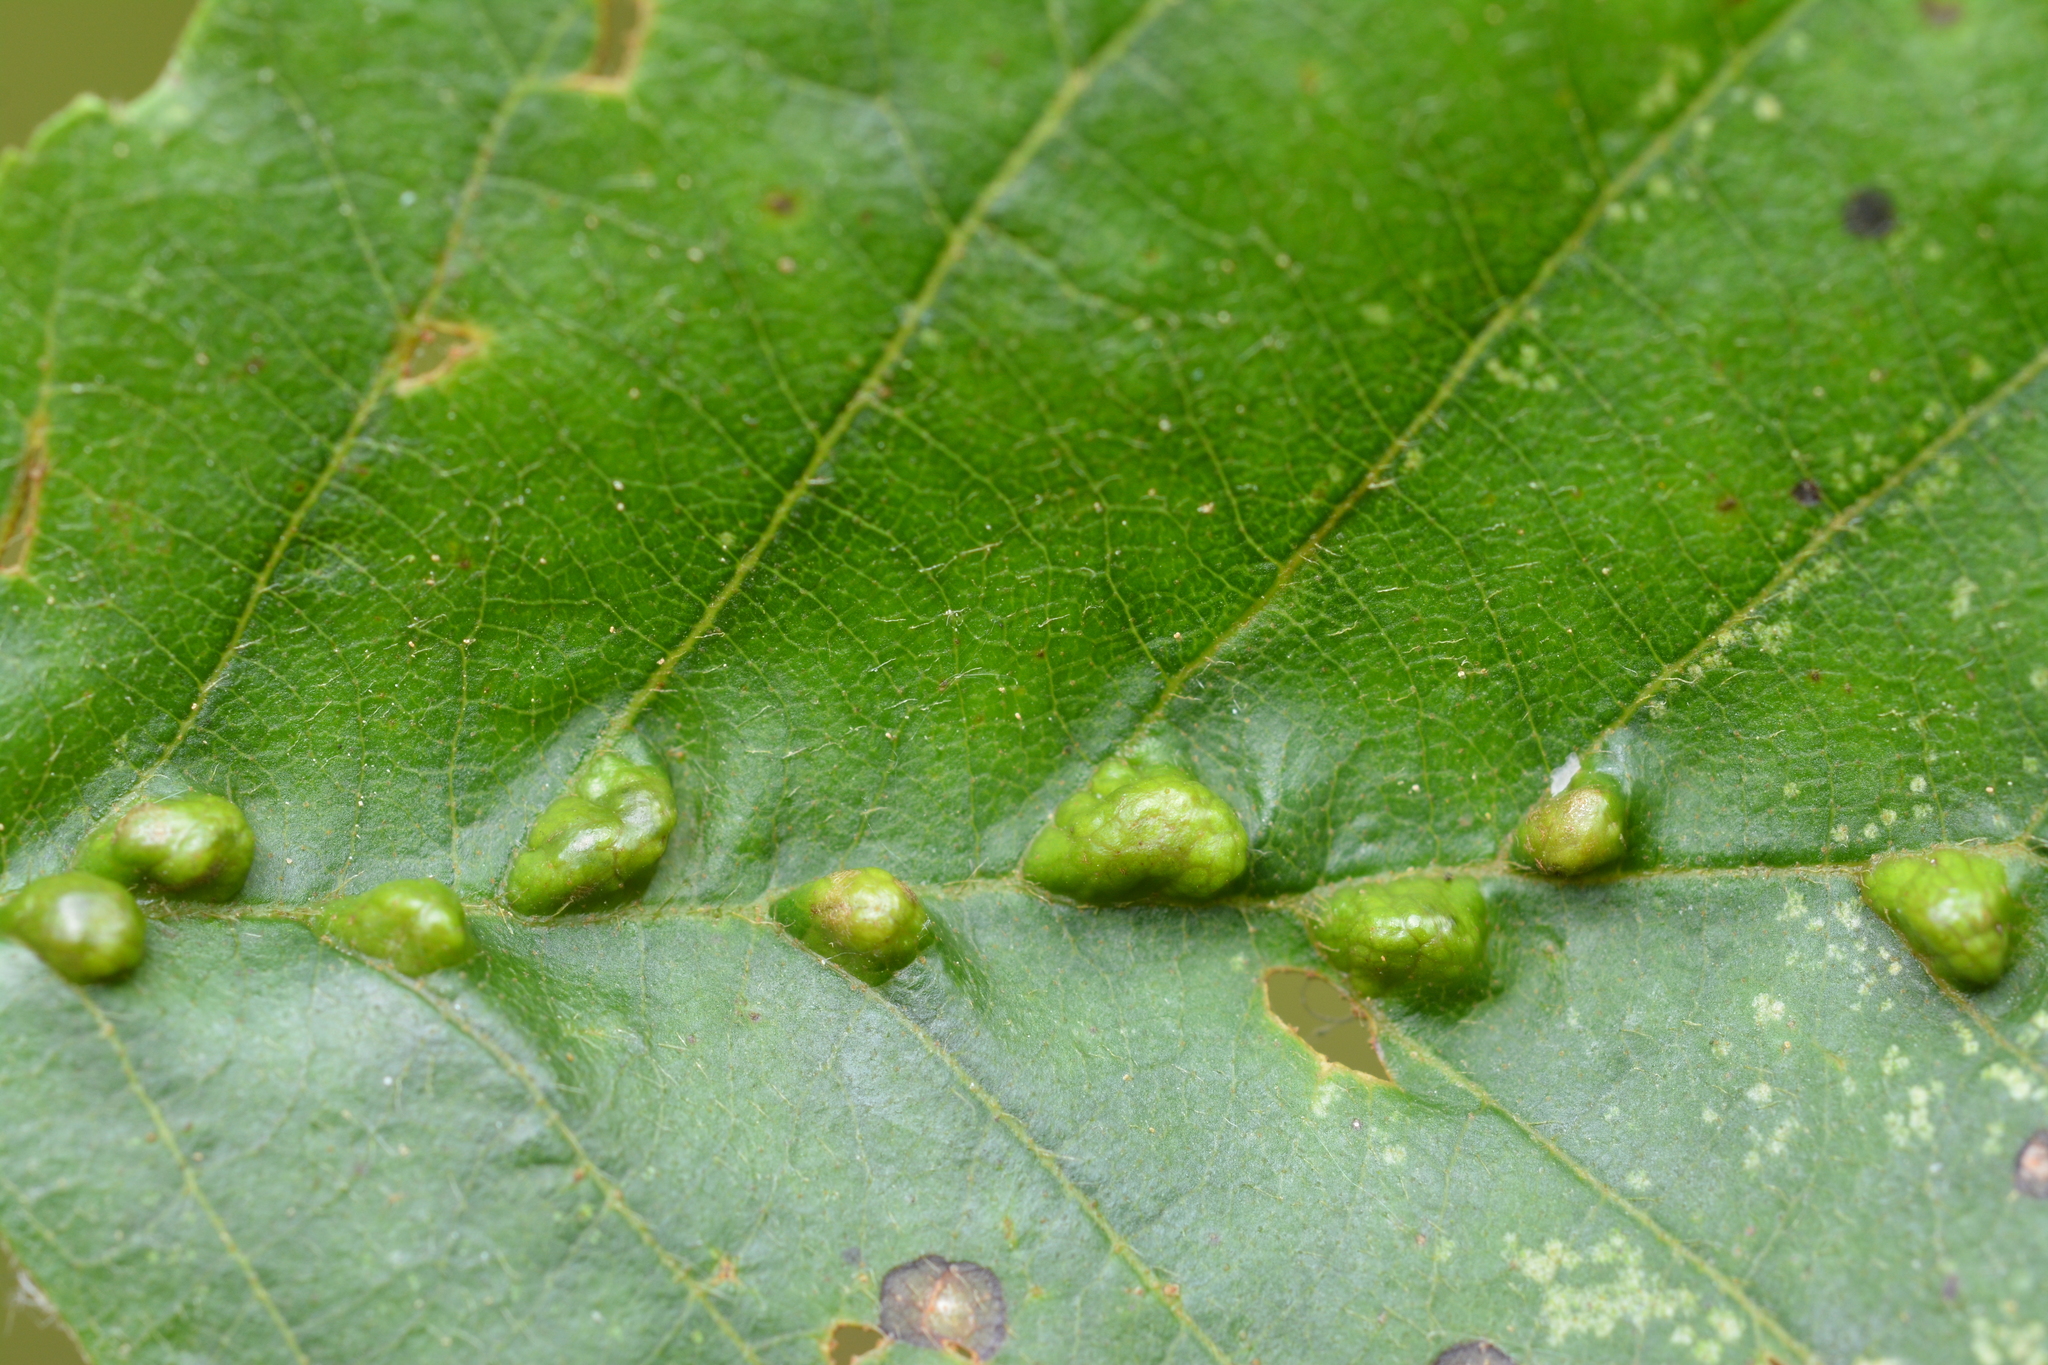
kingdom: Animalia
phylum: Arthropoda
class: Arachnida
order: Trombidiformes
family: Eriophyidae
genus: Aceria
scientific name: Aceria nalepai
